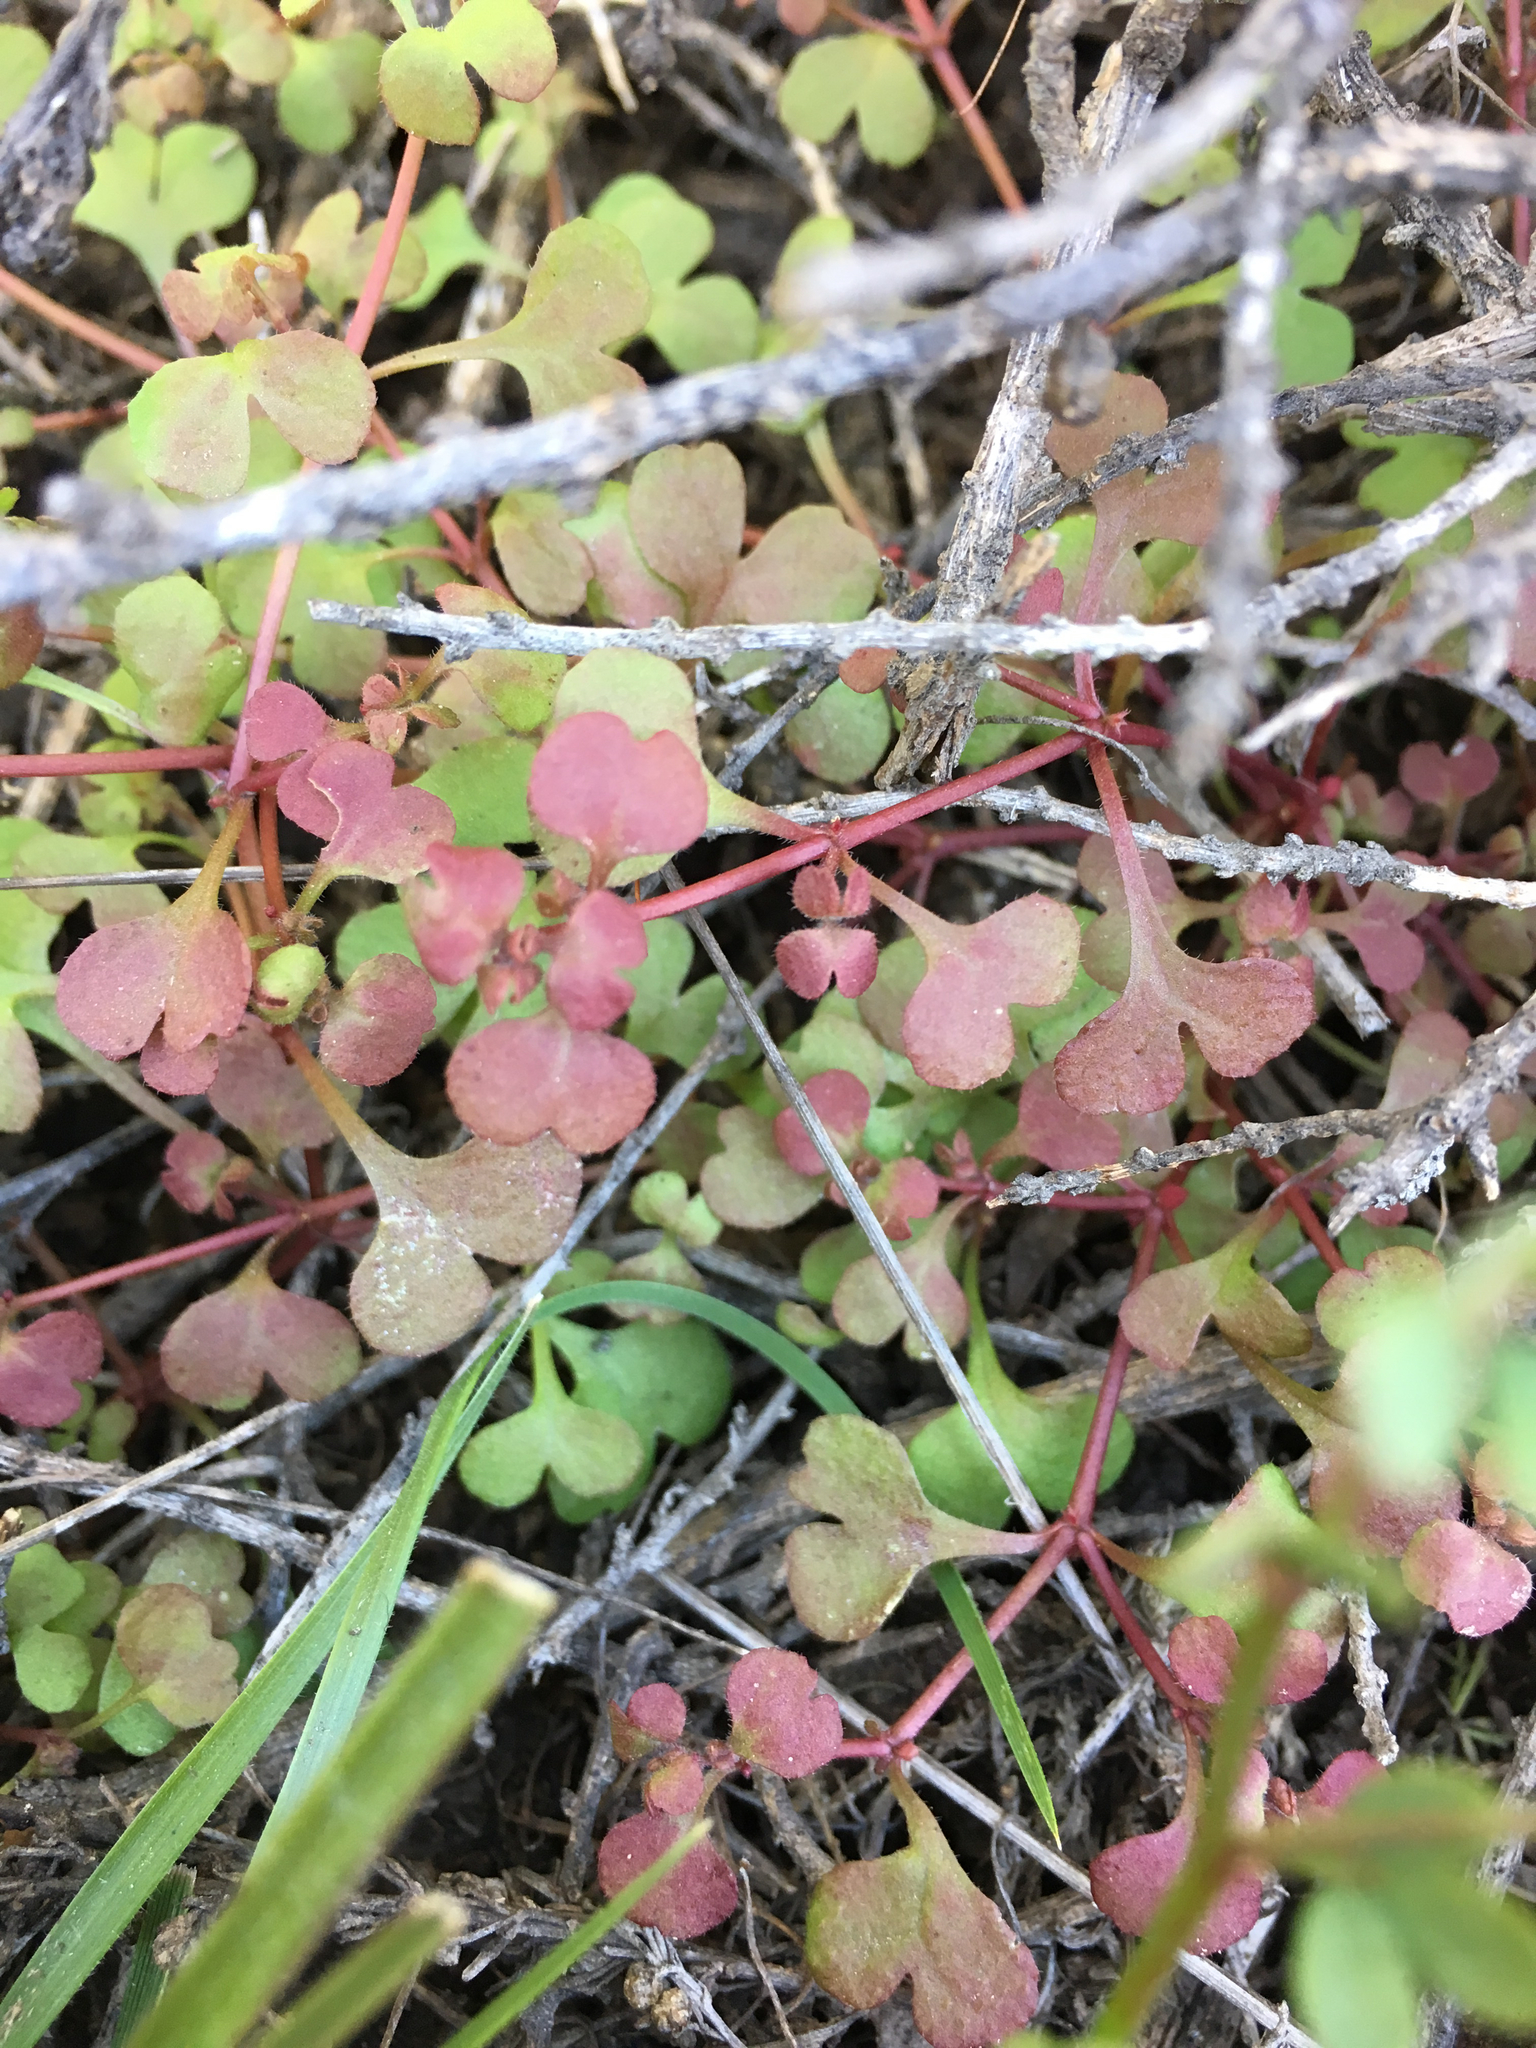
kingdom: Plantae
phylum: Tracheophyta
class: Magnoliopsida
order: Caryophyllales
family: Polygonaceae
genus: Pterostegia
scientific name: Pterostegia drymarioides
